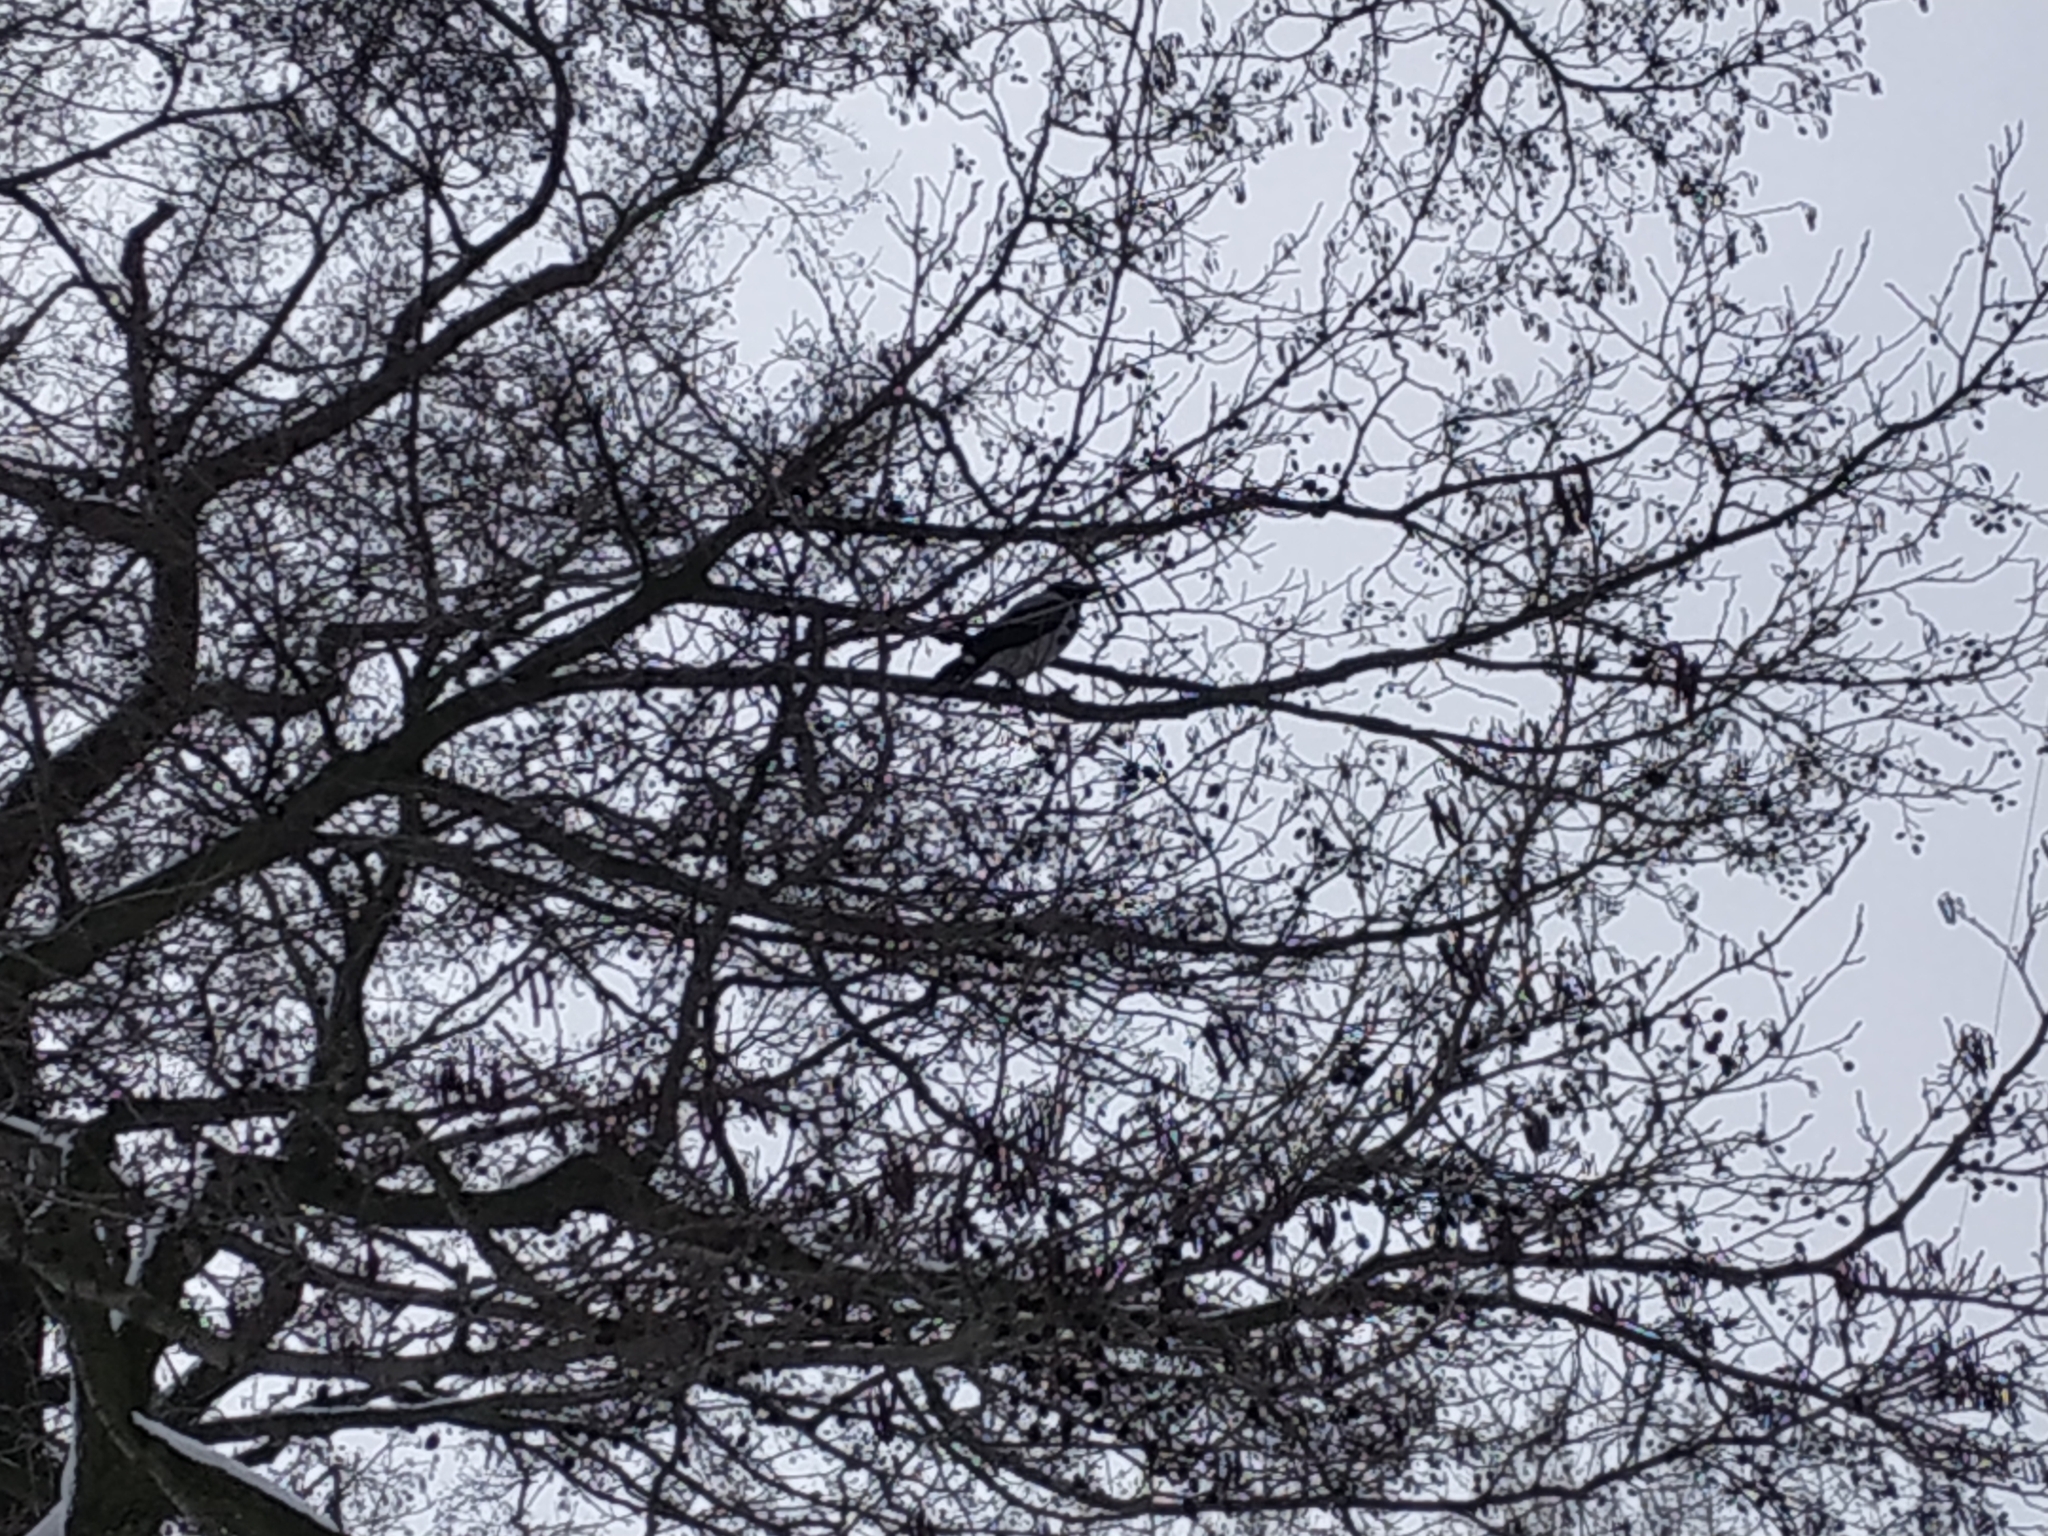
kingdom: Animalia
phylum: Chordata
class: Aves
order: Passeriformes
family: Corvidae
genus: Corvus
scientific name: Corvus cornix
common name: Hooded crow
